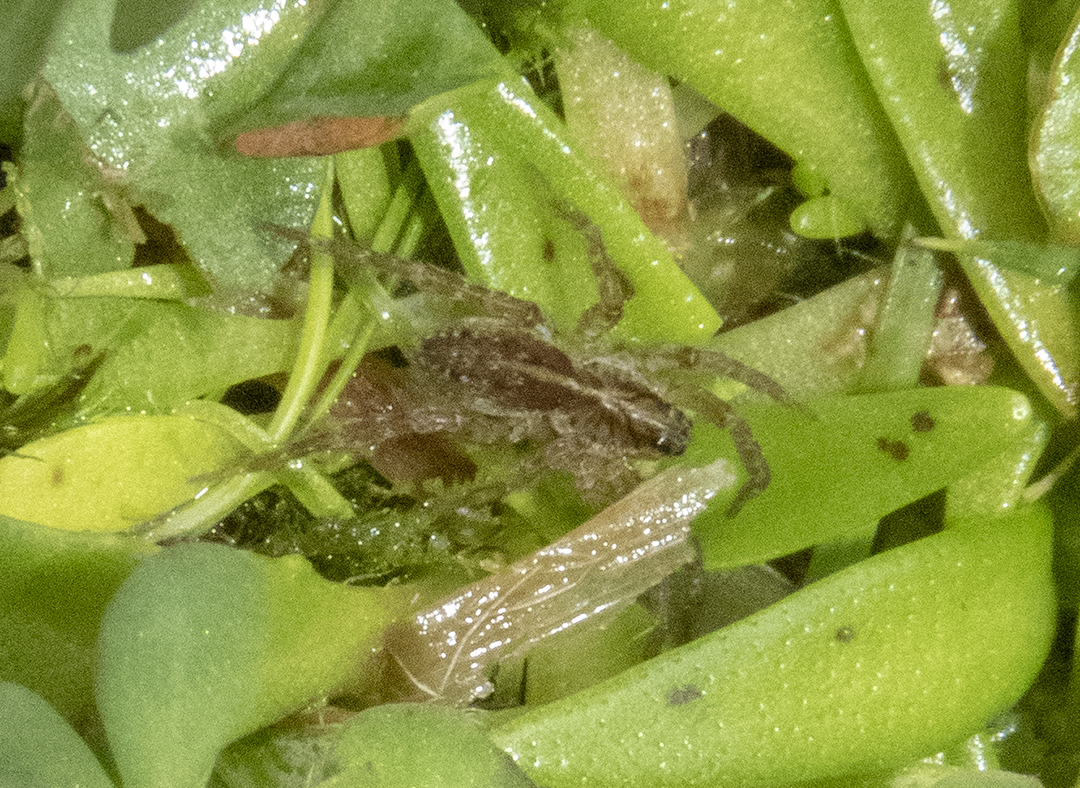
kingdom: Animalia
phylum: Arthropoda
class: Arachnida
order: Araneae
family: Lycosidae
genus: Allotrochosina
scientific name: Allotrochosina schauinslandi
